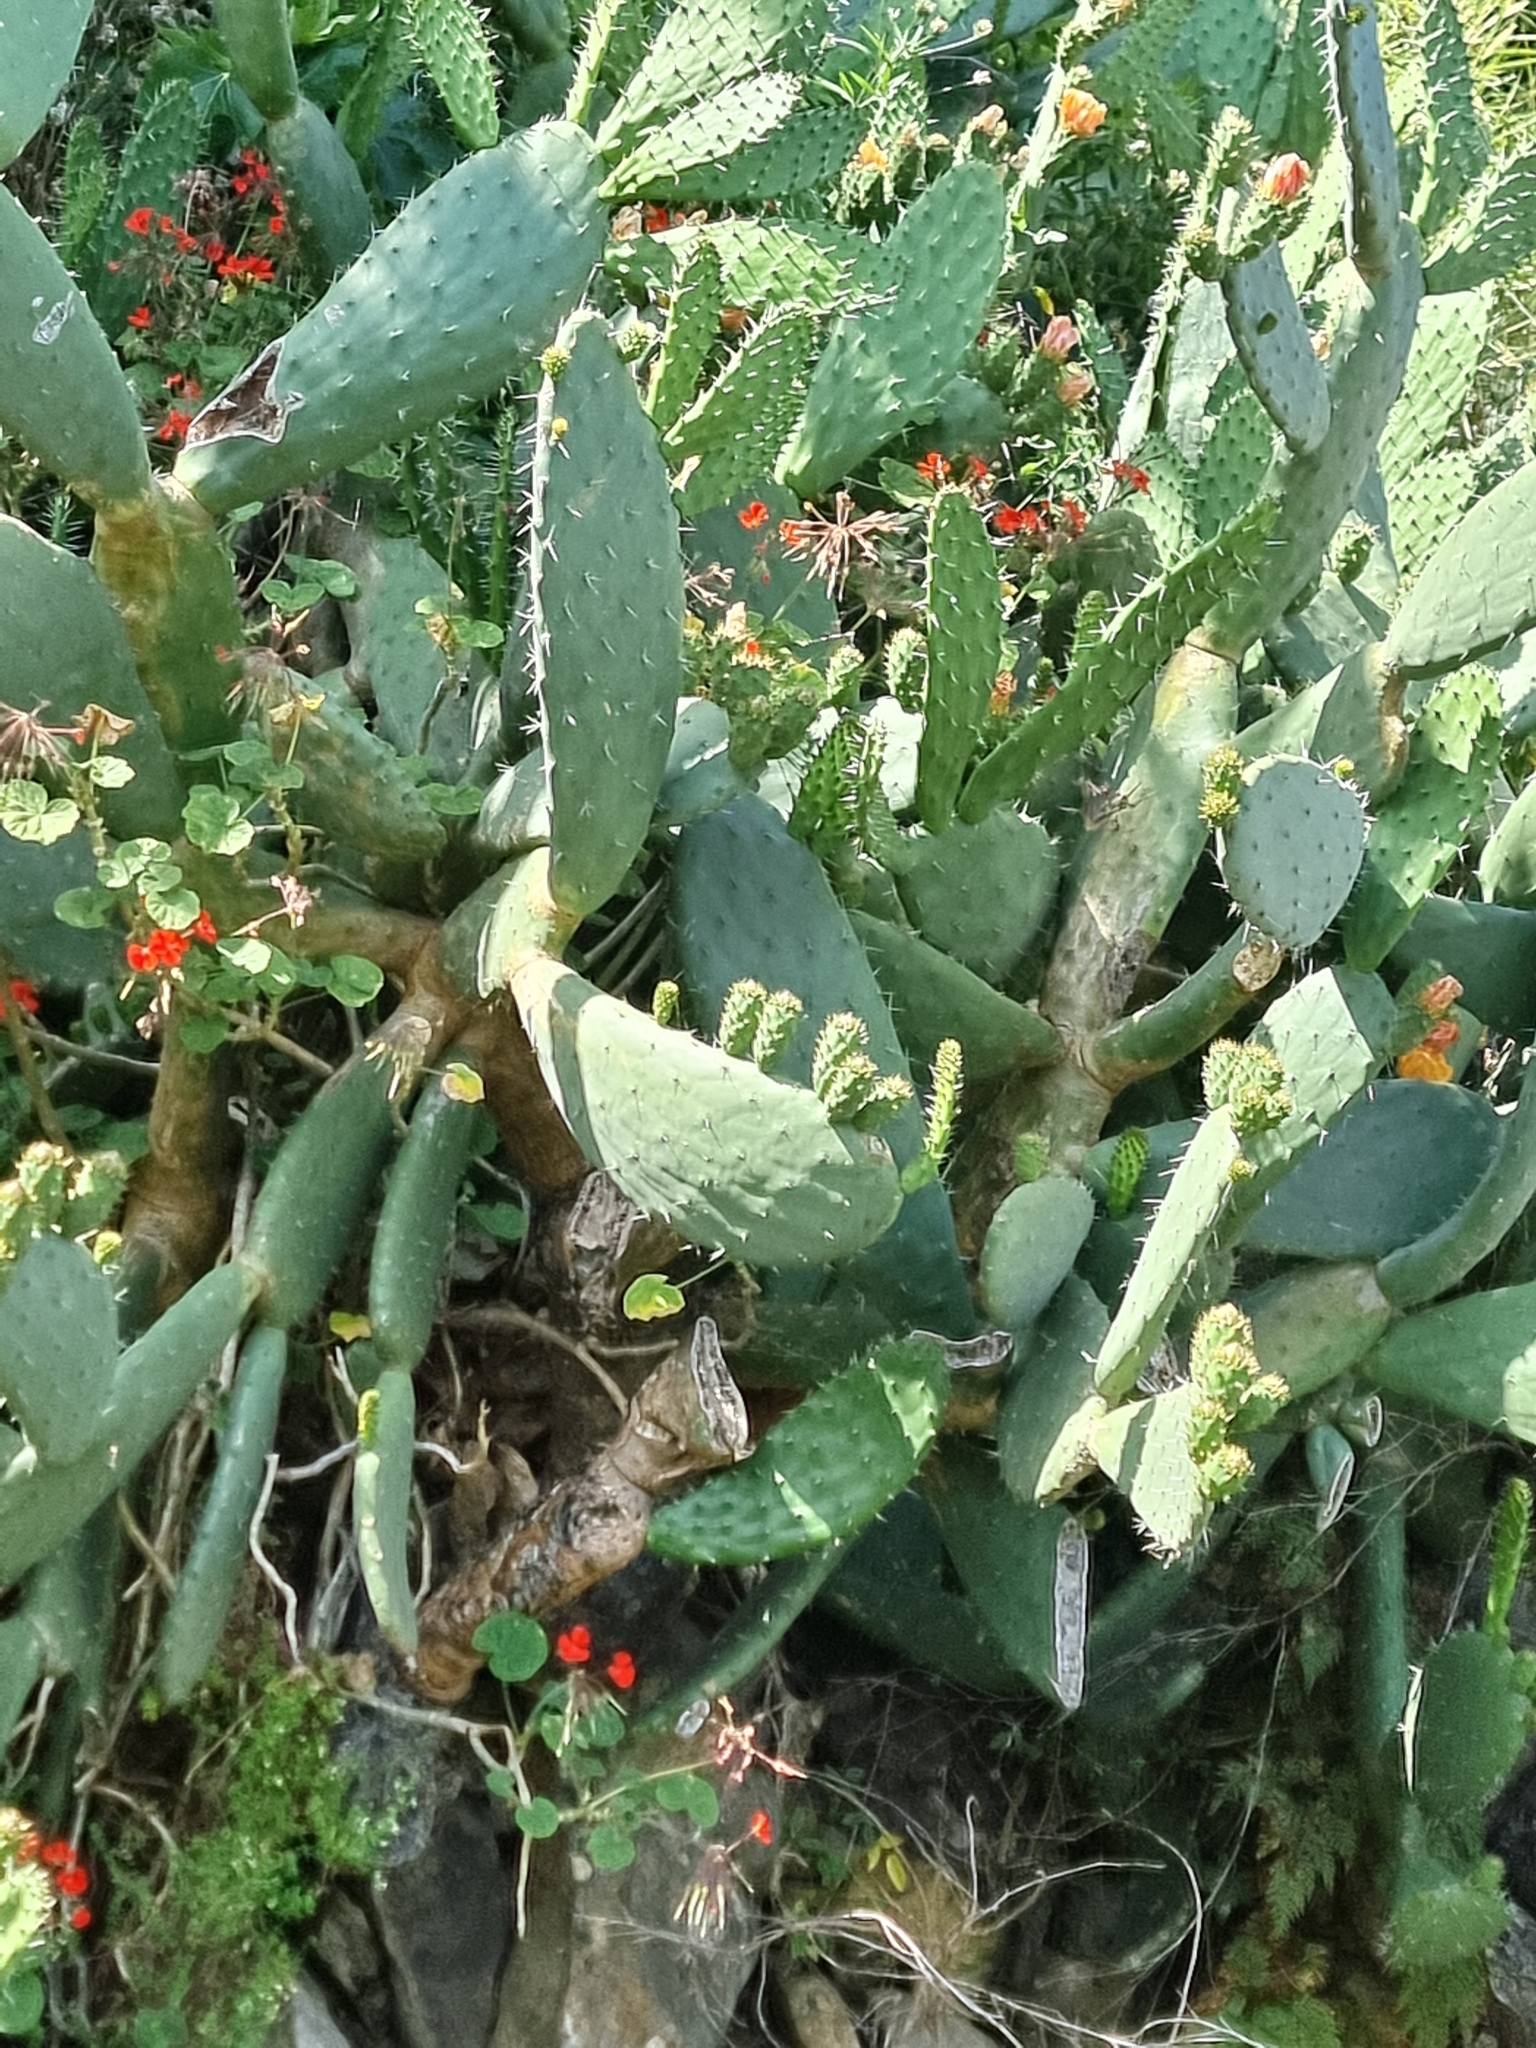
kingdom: Plantae
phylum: Tracheophyta
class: Magnoliopsida
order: Caryophyllales
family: Cactaceae
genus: Opuntia
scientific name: Opuntia ficus-indica
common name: Barbary fig
